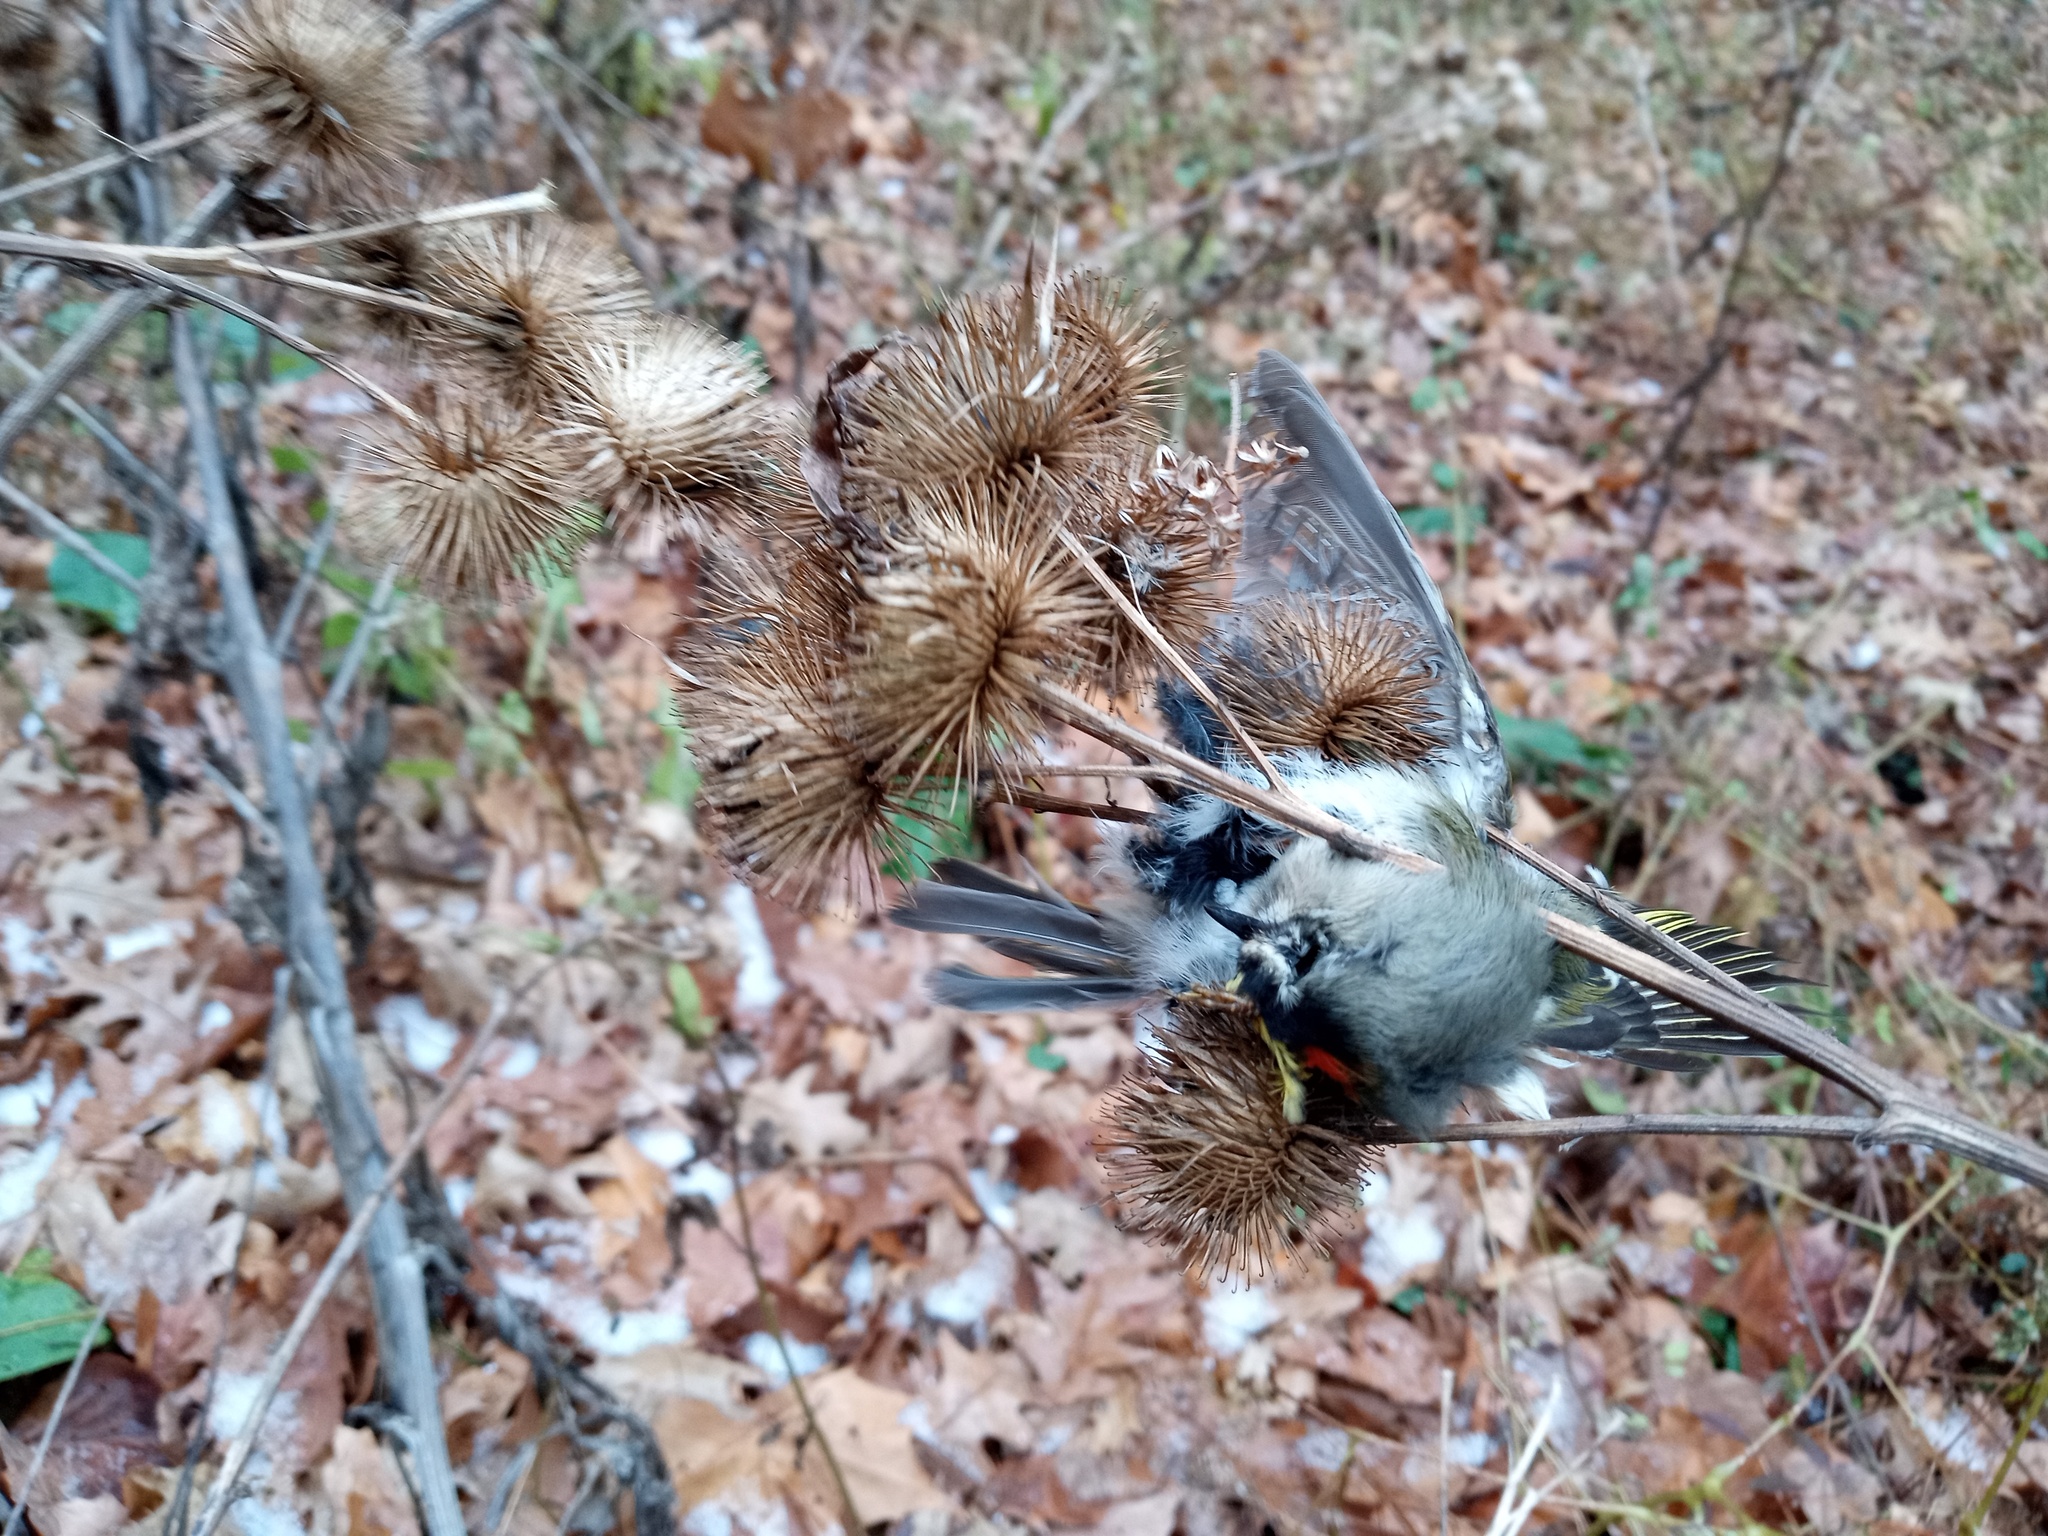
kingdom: Animalia
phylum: Chordata
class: Aves
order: Passeriformes
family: Regulidae
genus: Regulus
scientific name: Regulus satrapa
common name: Golden-crowned kinglet
